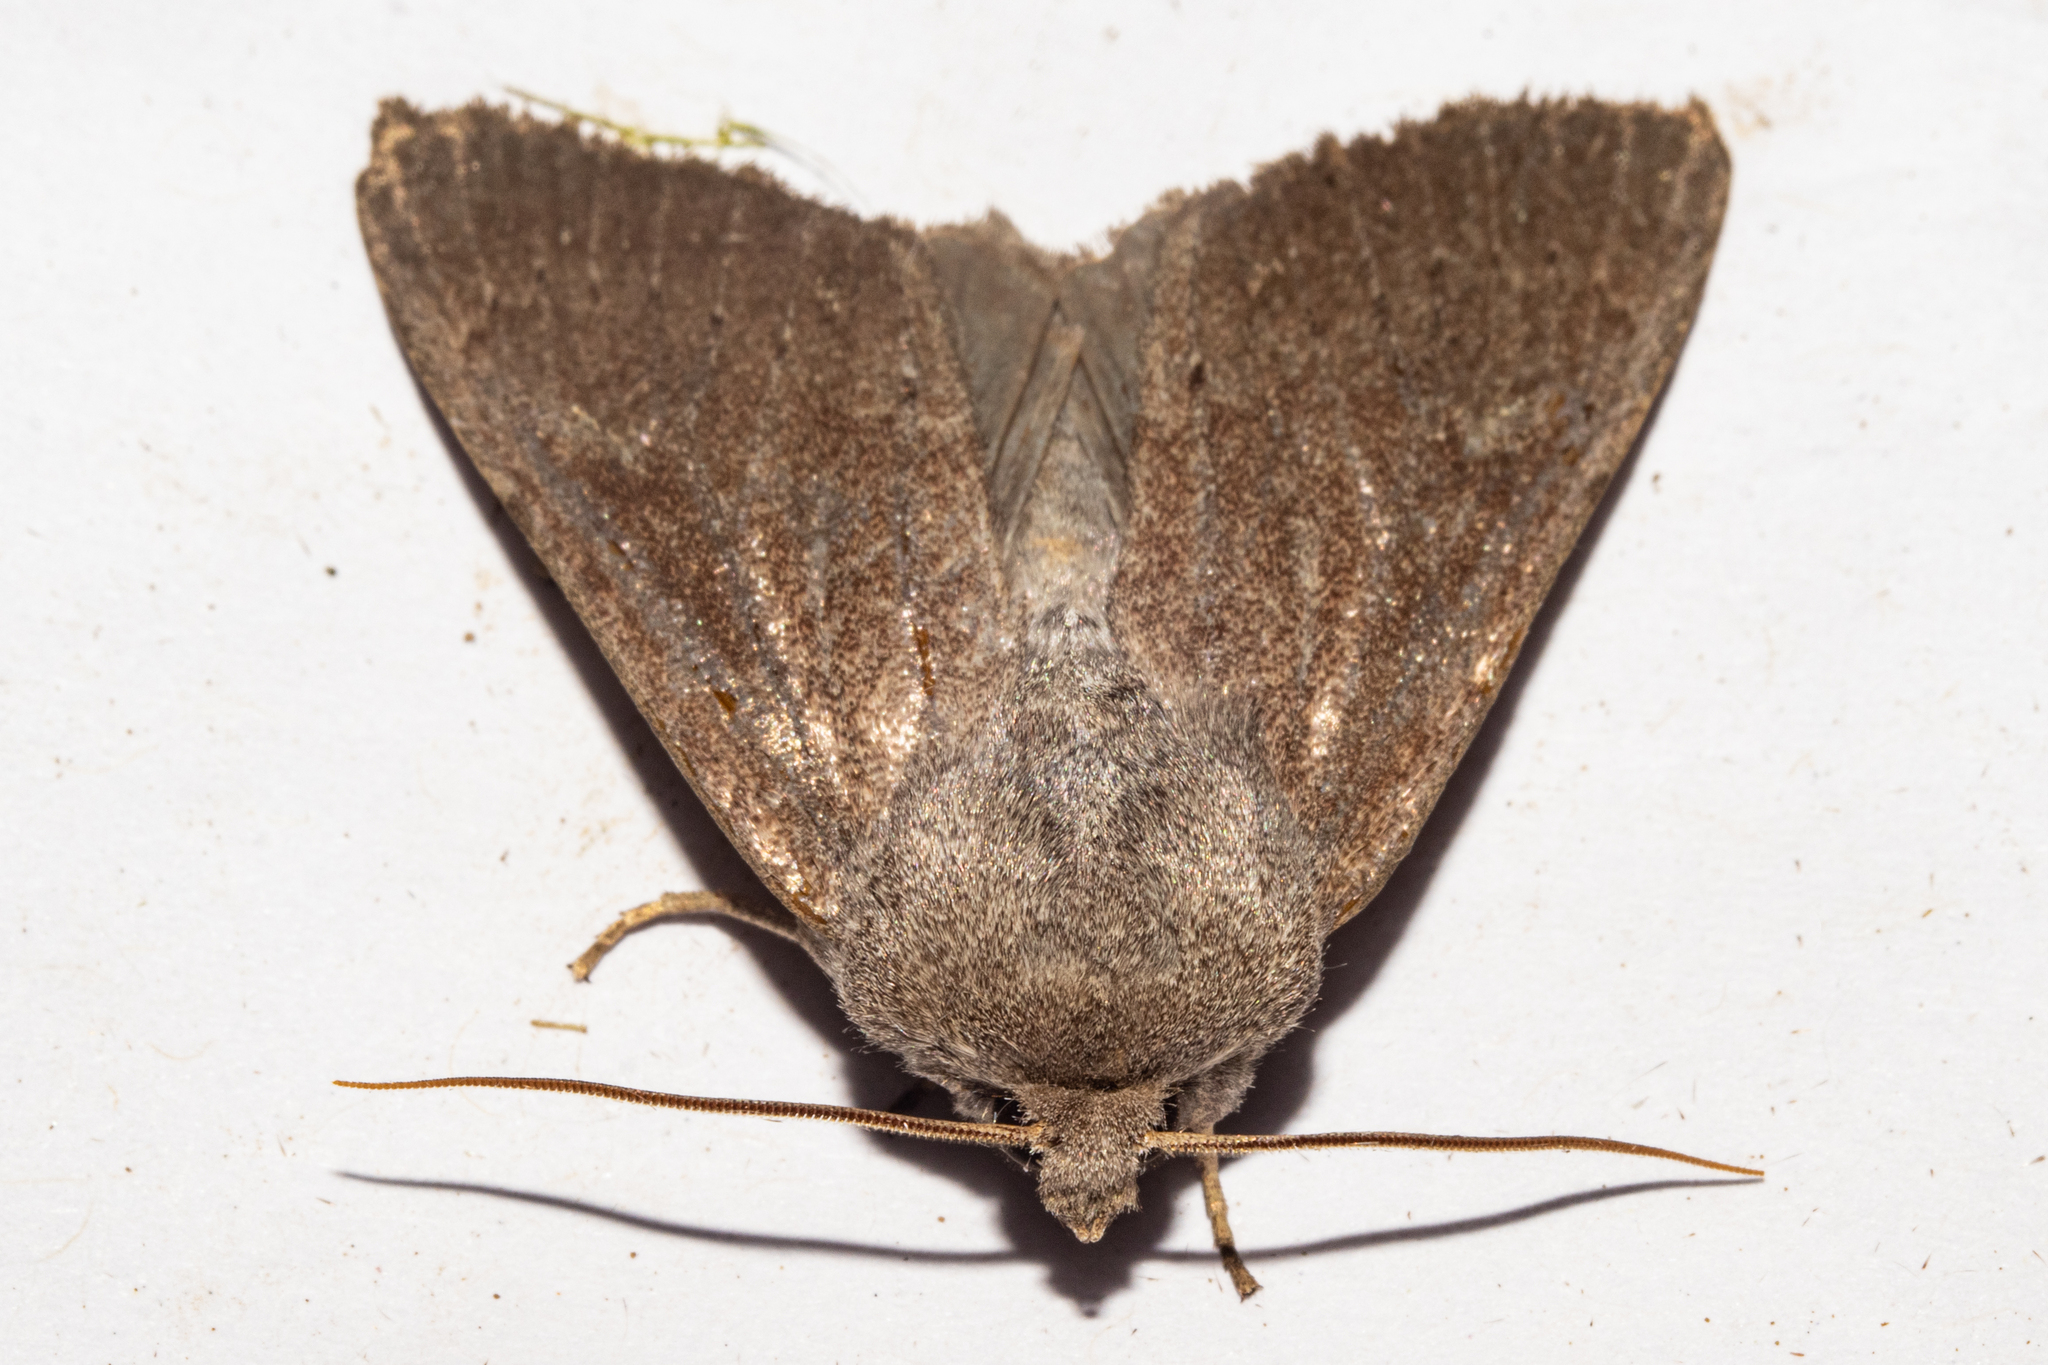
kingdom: Animalia
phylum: Arthropoda
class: Insecta
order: Lepidoptera
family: Noctuidae
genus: Ichneutica
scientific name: Ichneutica nullifera
